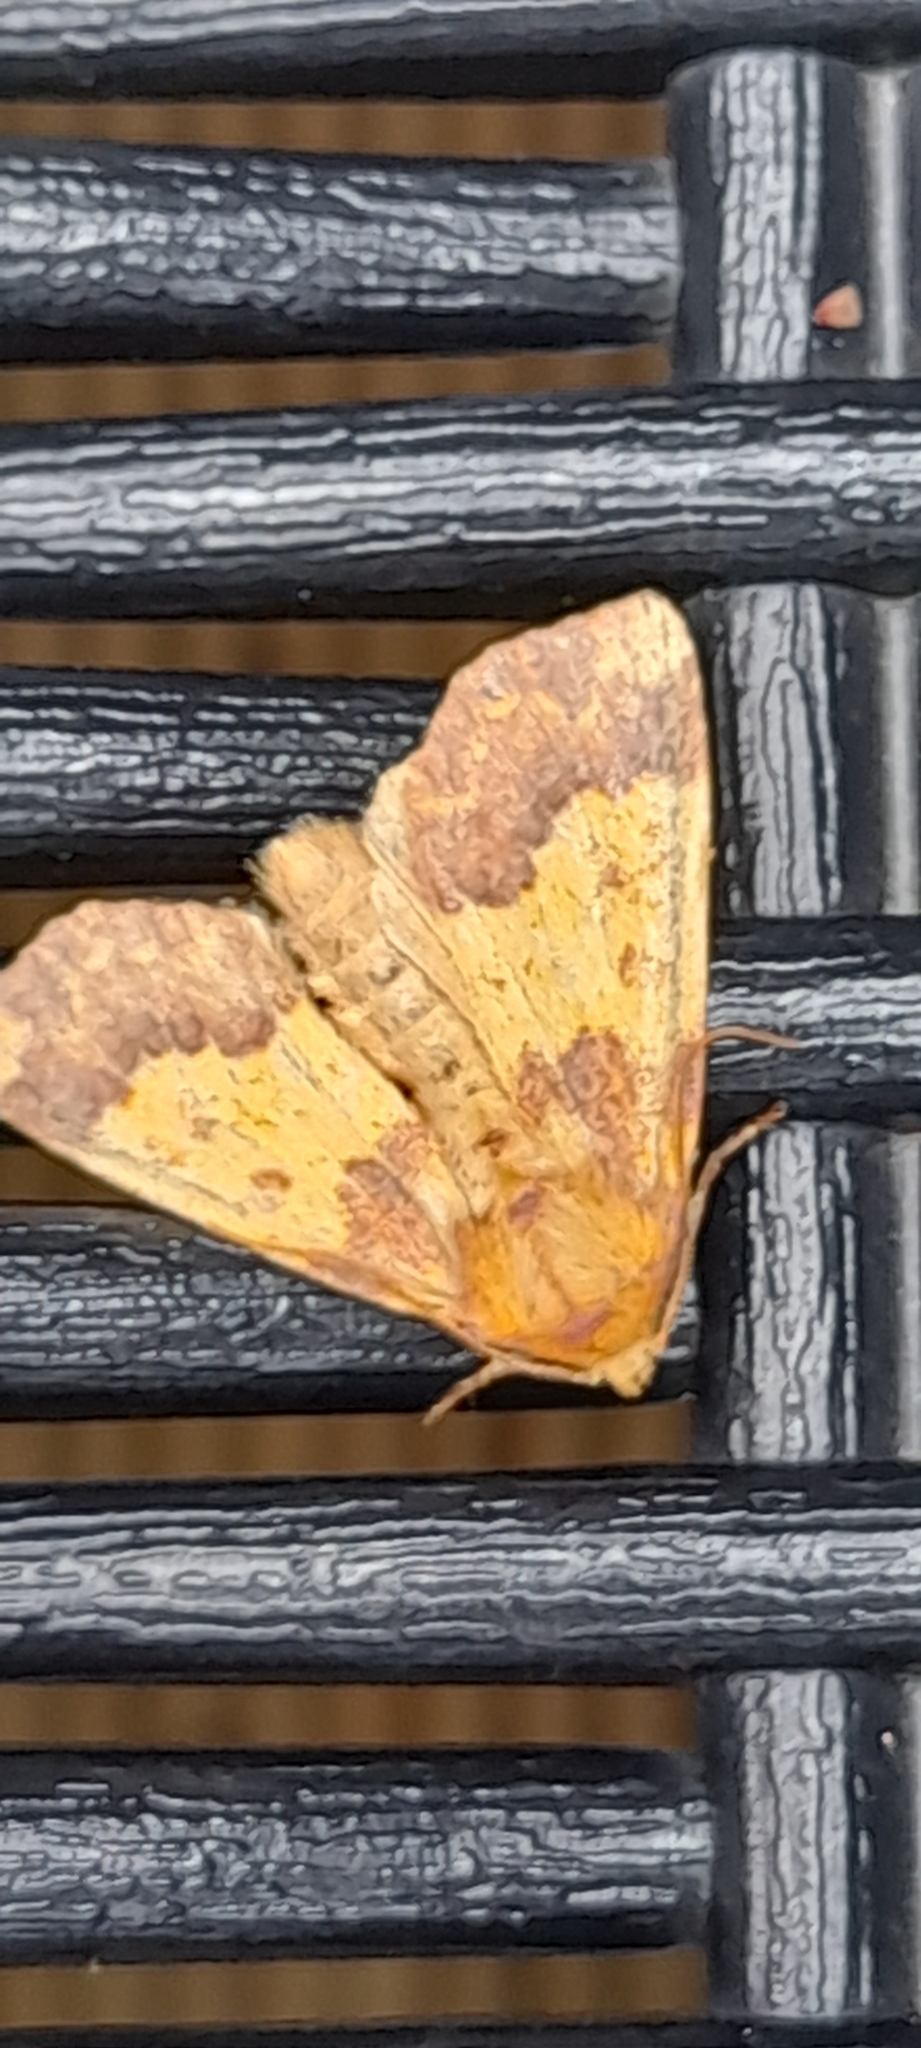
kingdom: Animalia
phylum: Arthropoda
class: Insecta
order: Lepidoptera
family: Noctuidae
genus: Tiliacea
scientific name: Tiliacea aurago
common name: Barred sallow
